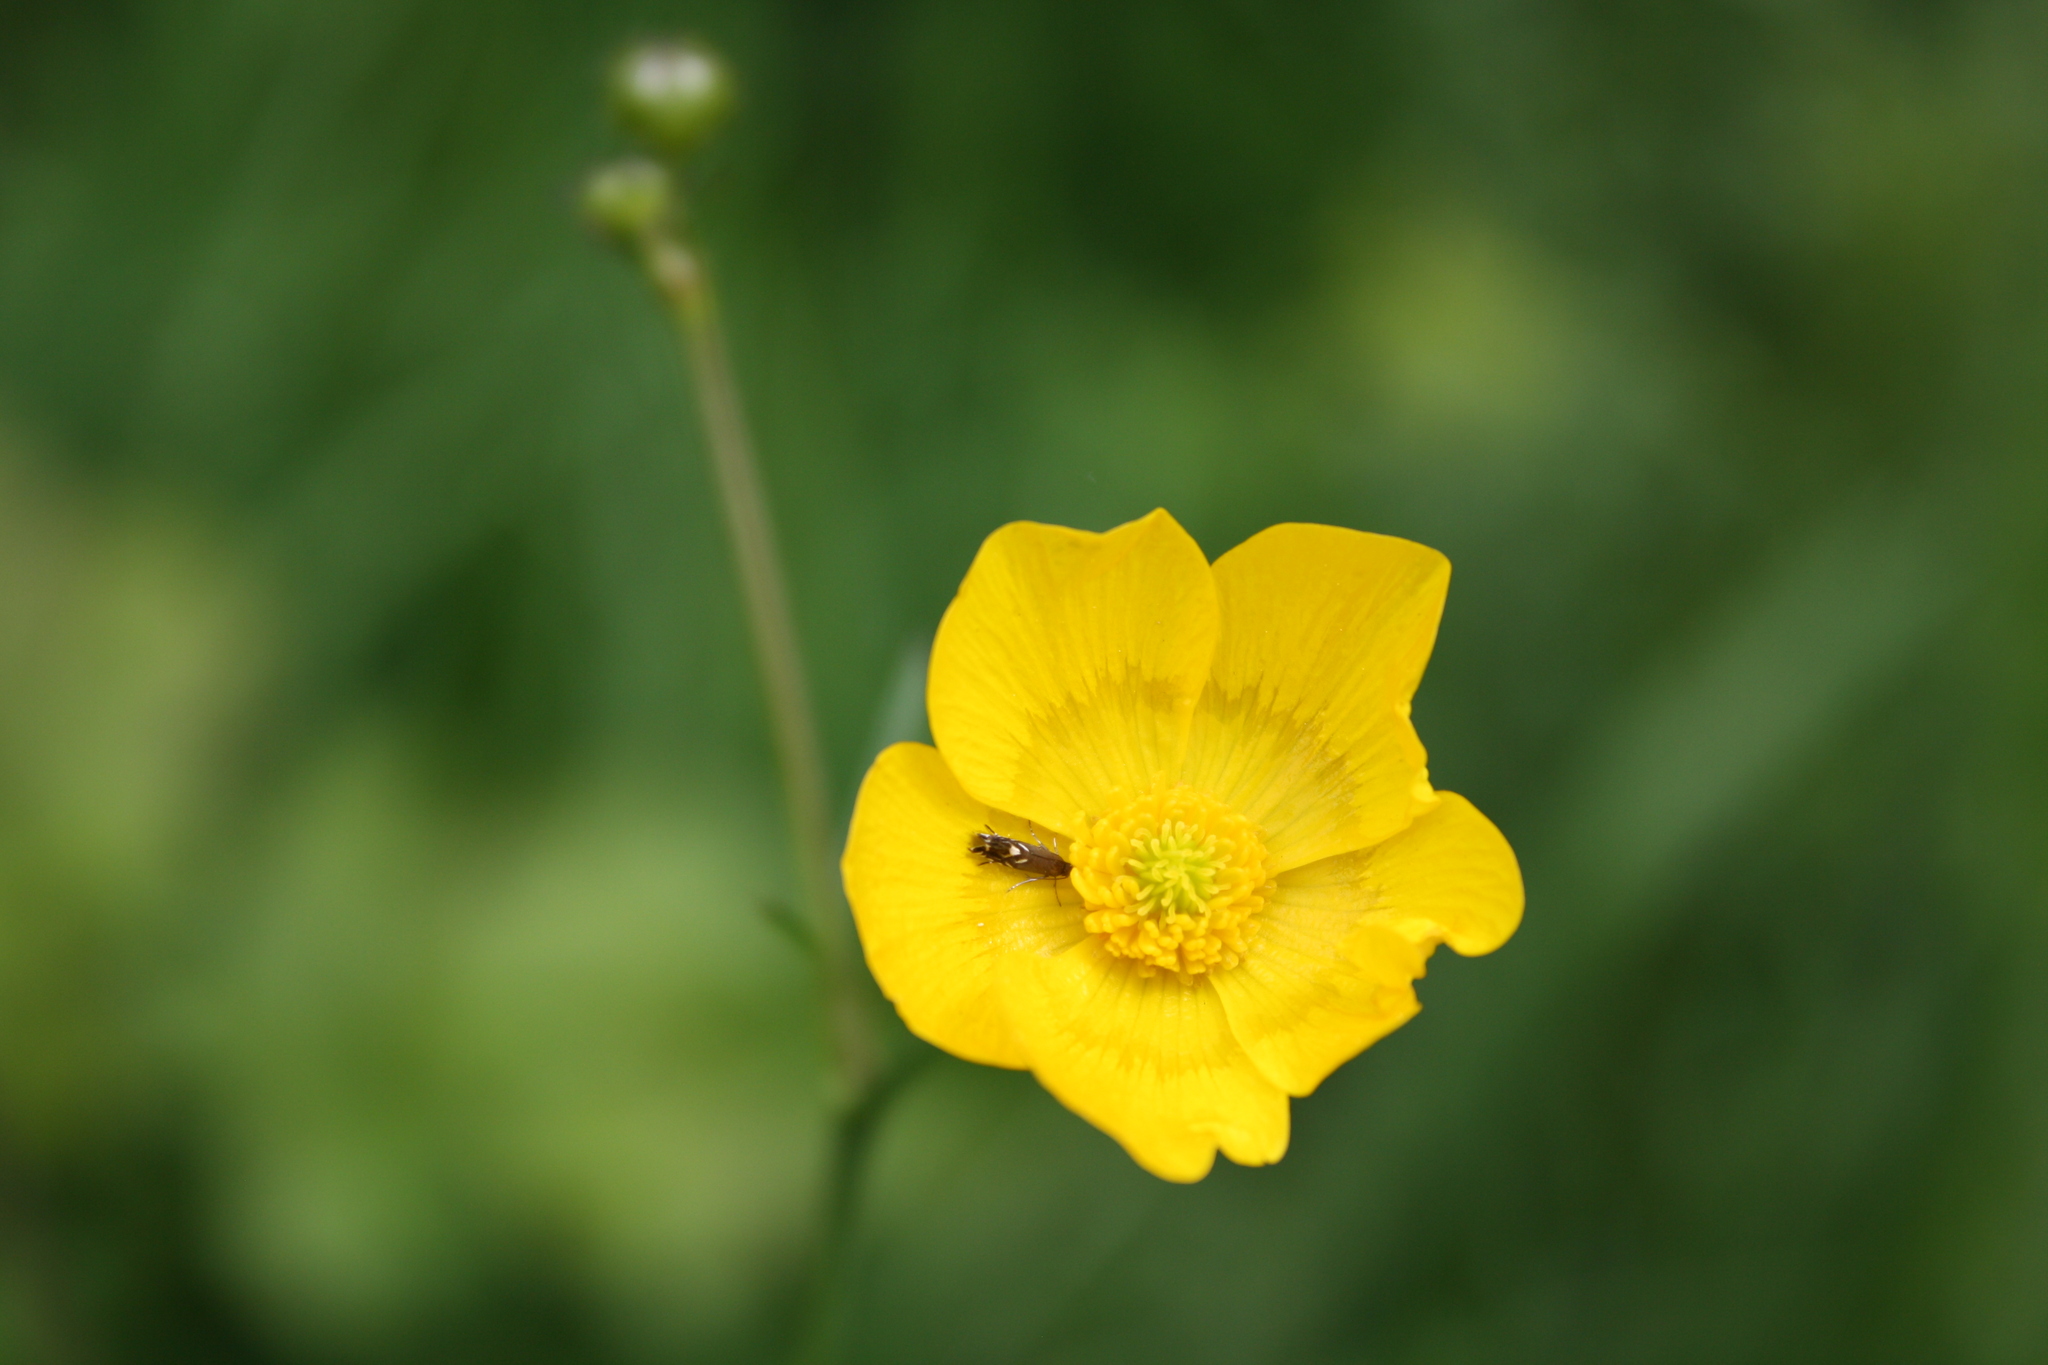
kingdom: Animalia
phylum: Arthropoda
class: Insecta
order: Lepidoptera
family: Glyphipterigidae
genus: Glyphipterix
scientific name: Glyphipterix simpliciella
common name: Cocksfoot moth
